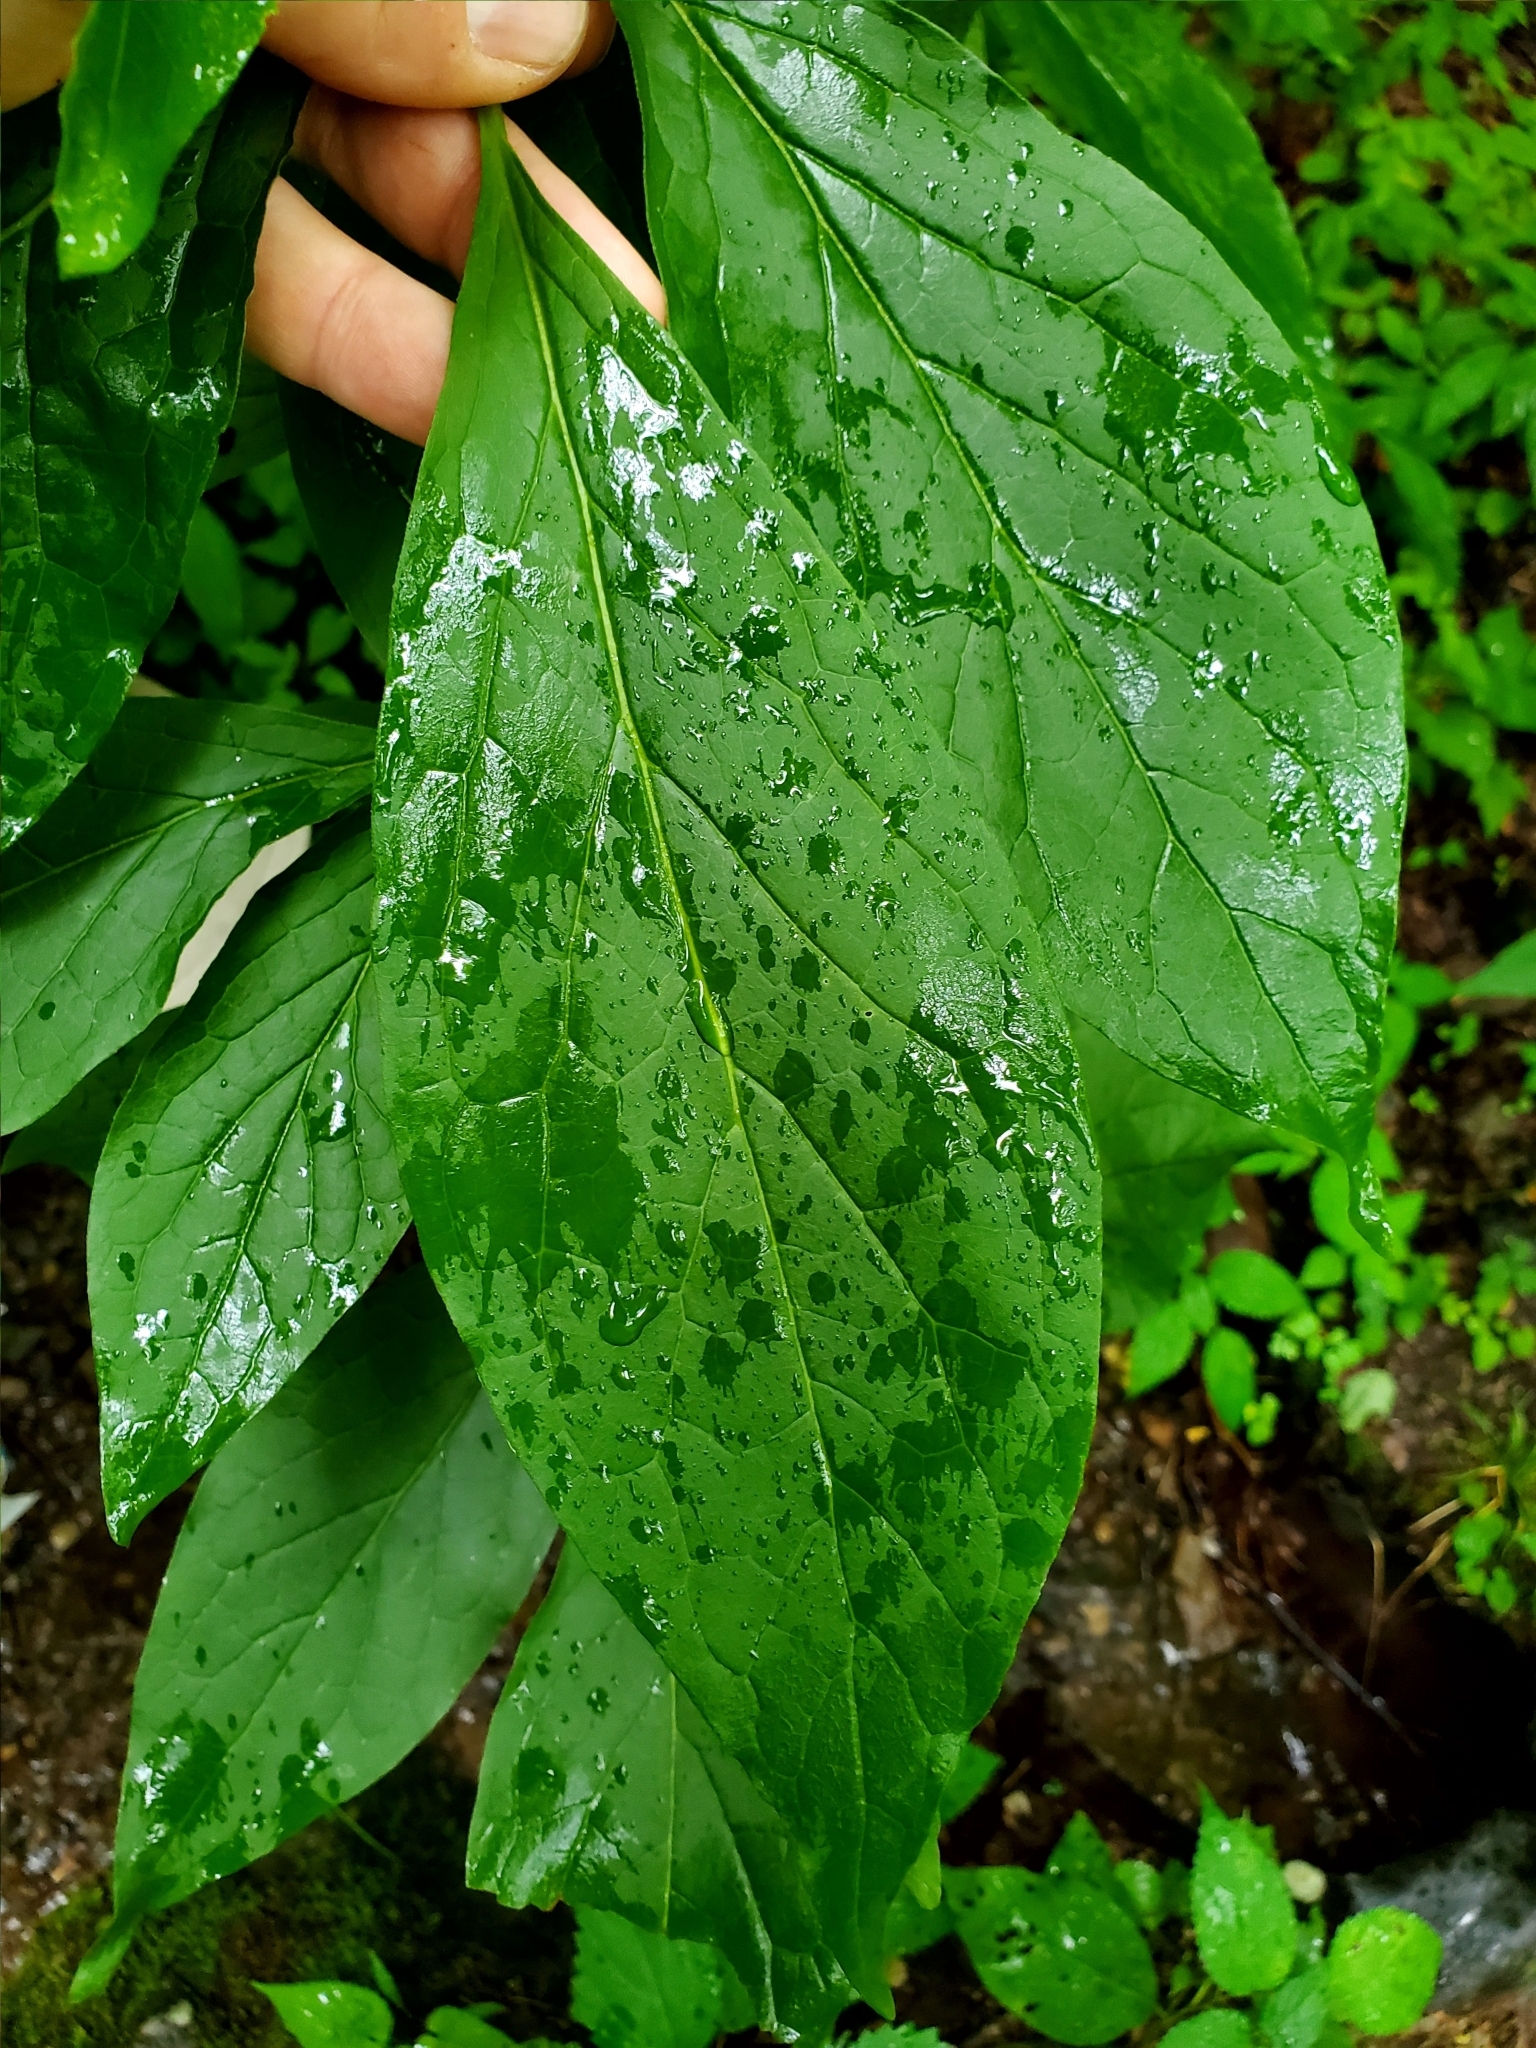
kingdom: Plantae
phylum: Tracheophyta
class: Magnoliopsida
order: Santalales
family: Cervantesiaceae
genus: Pyrularia
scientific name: Pyrularia pubera
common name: Oilnut
